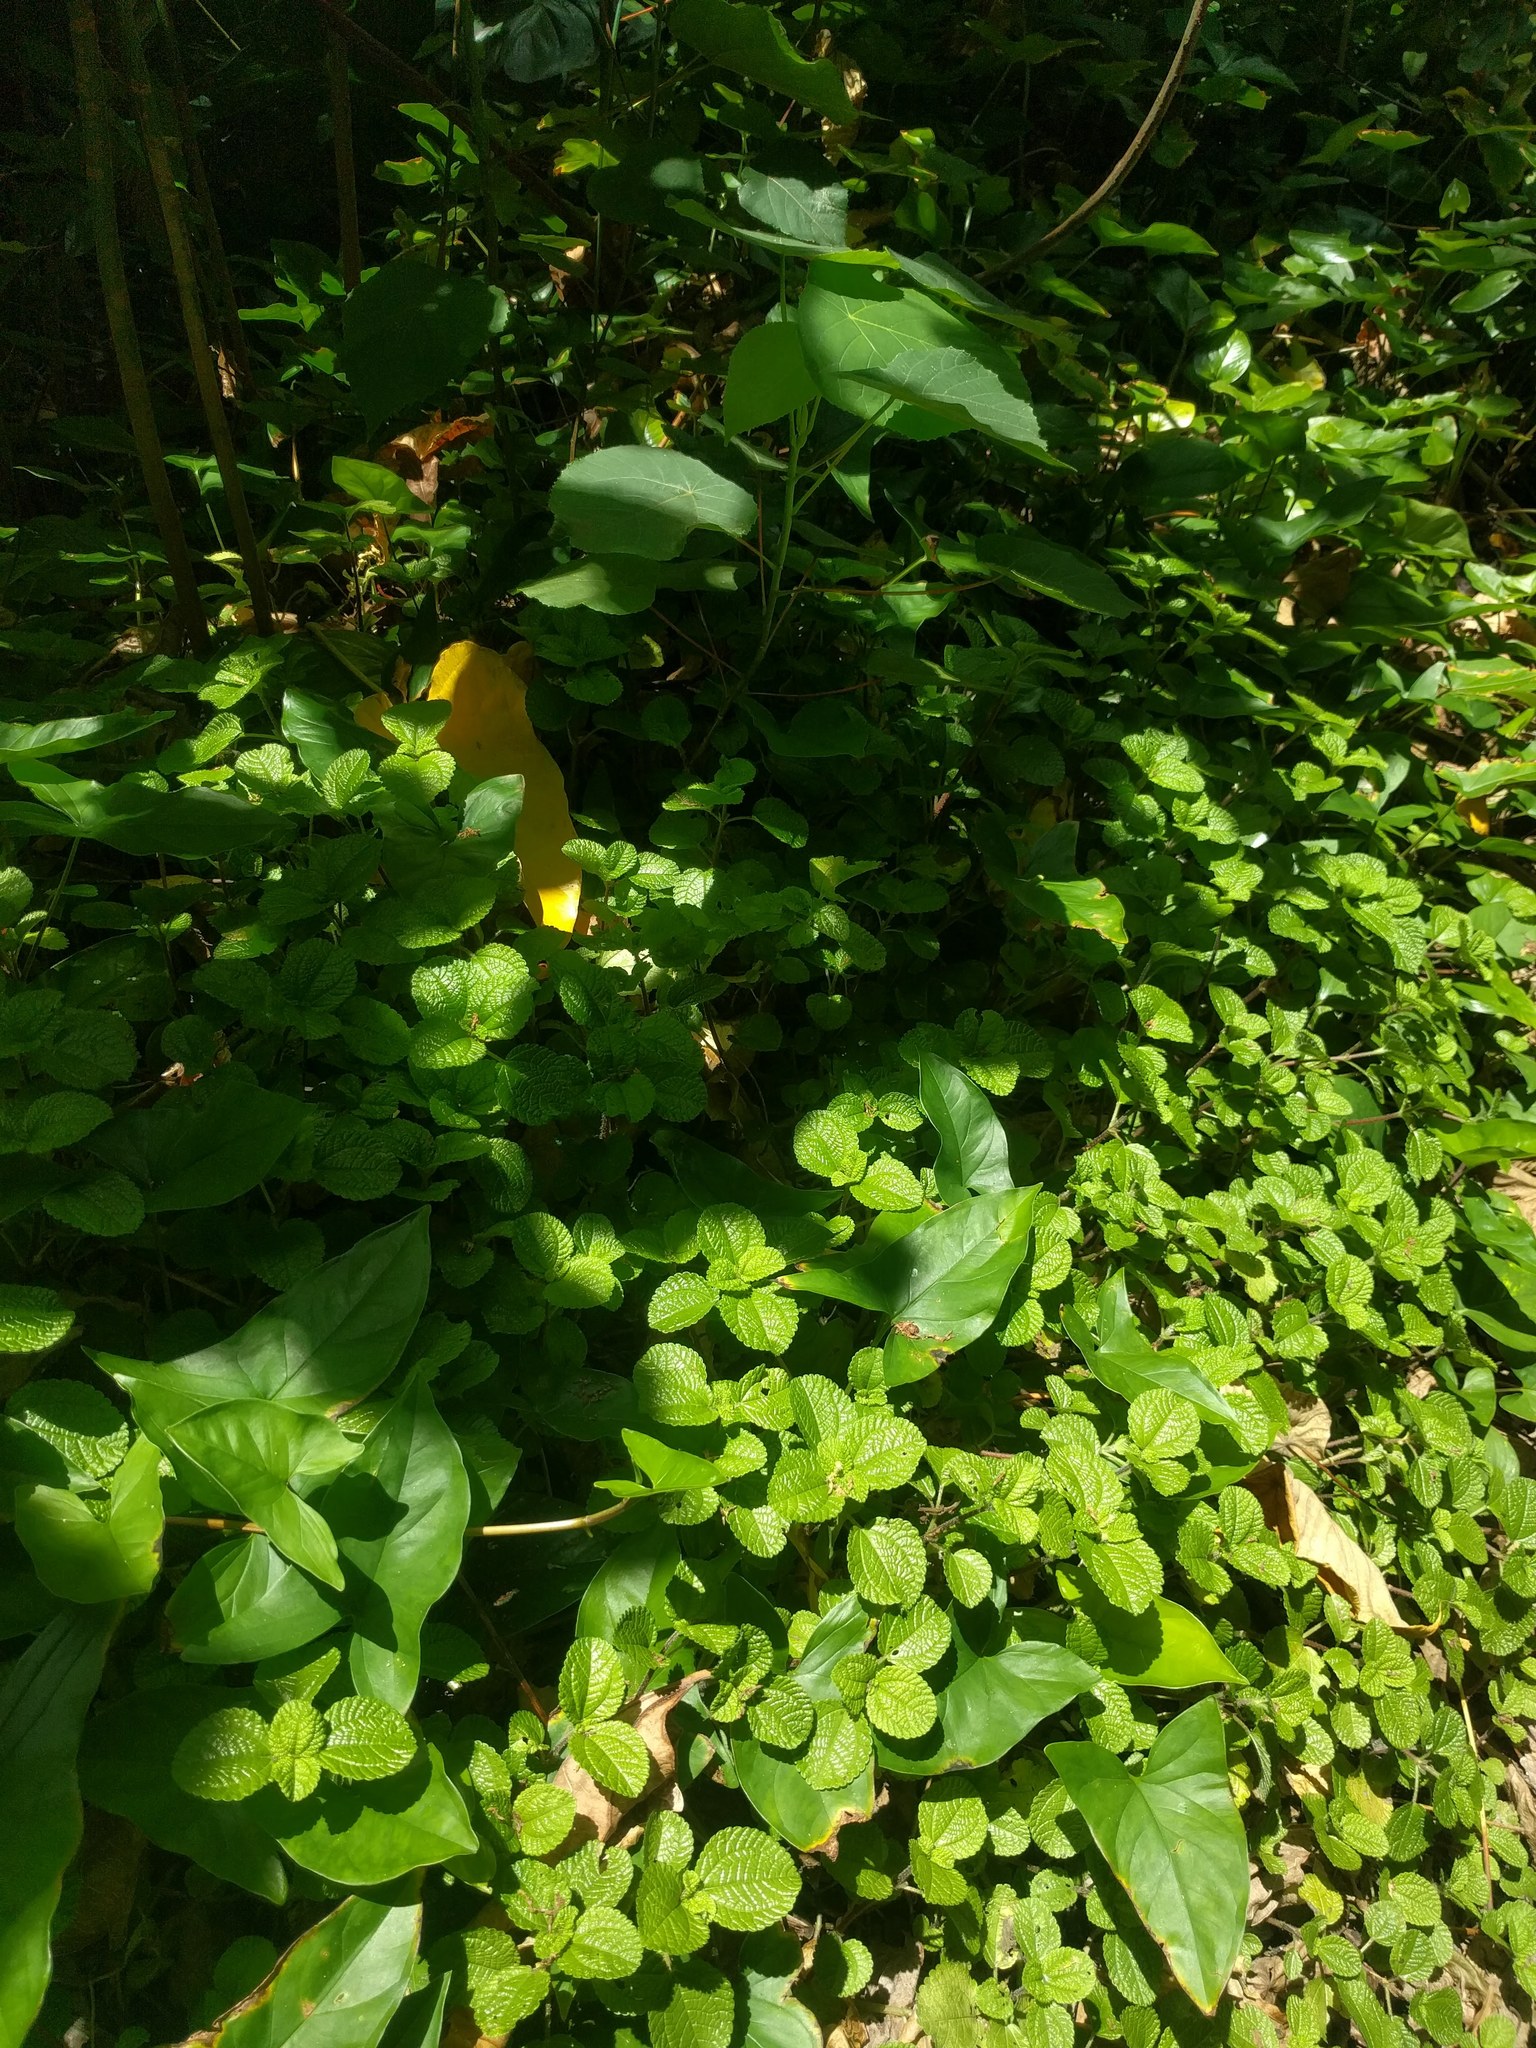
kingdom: Plantae
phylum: Tracheophyta
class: Magnoliopsida
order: Rosales
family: Urticaceae
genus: Pilea
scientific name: Pilea nummulariifolia
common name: Creeping-charlie
